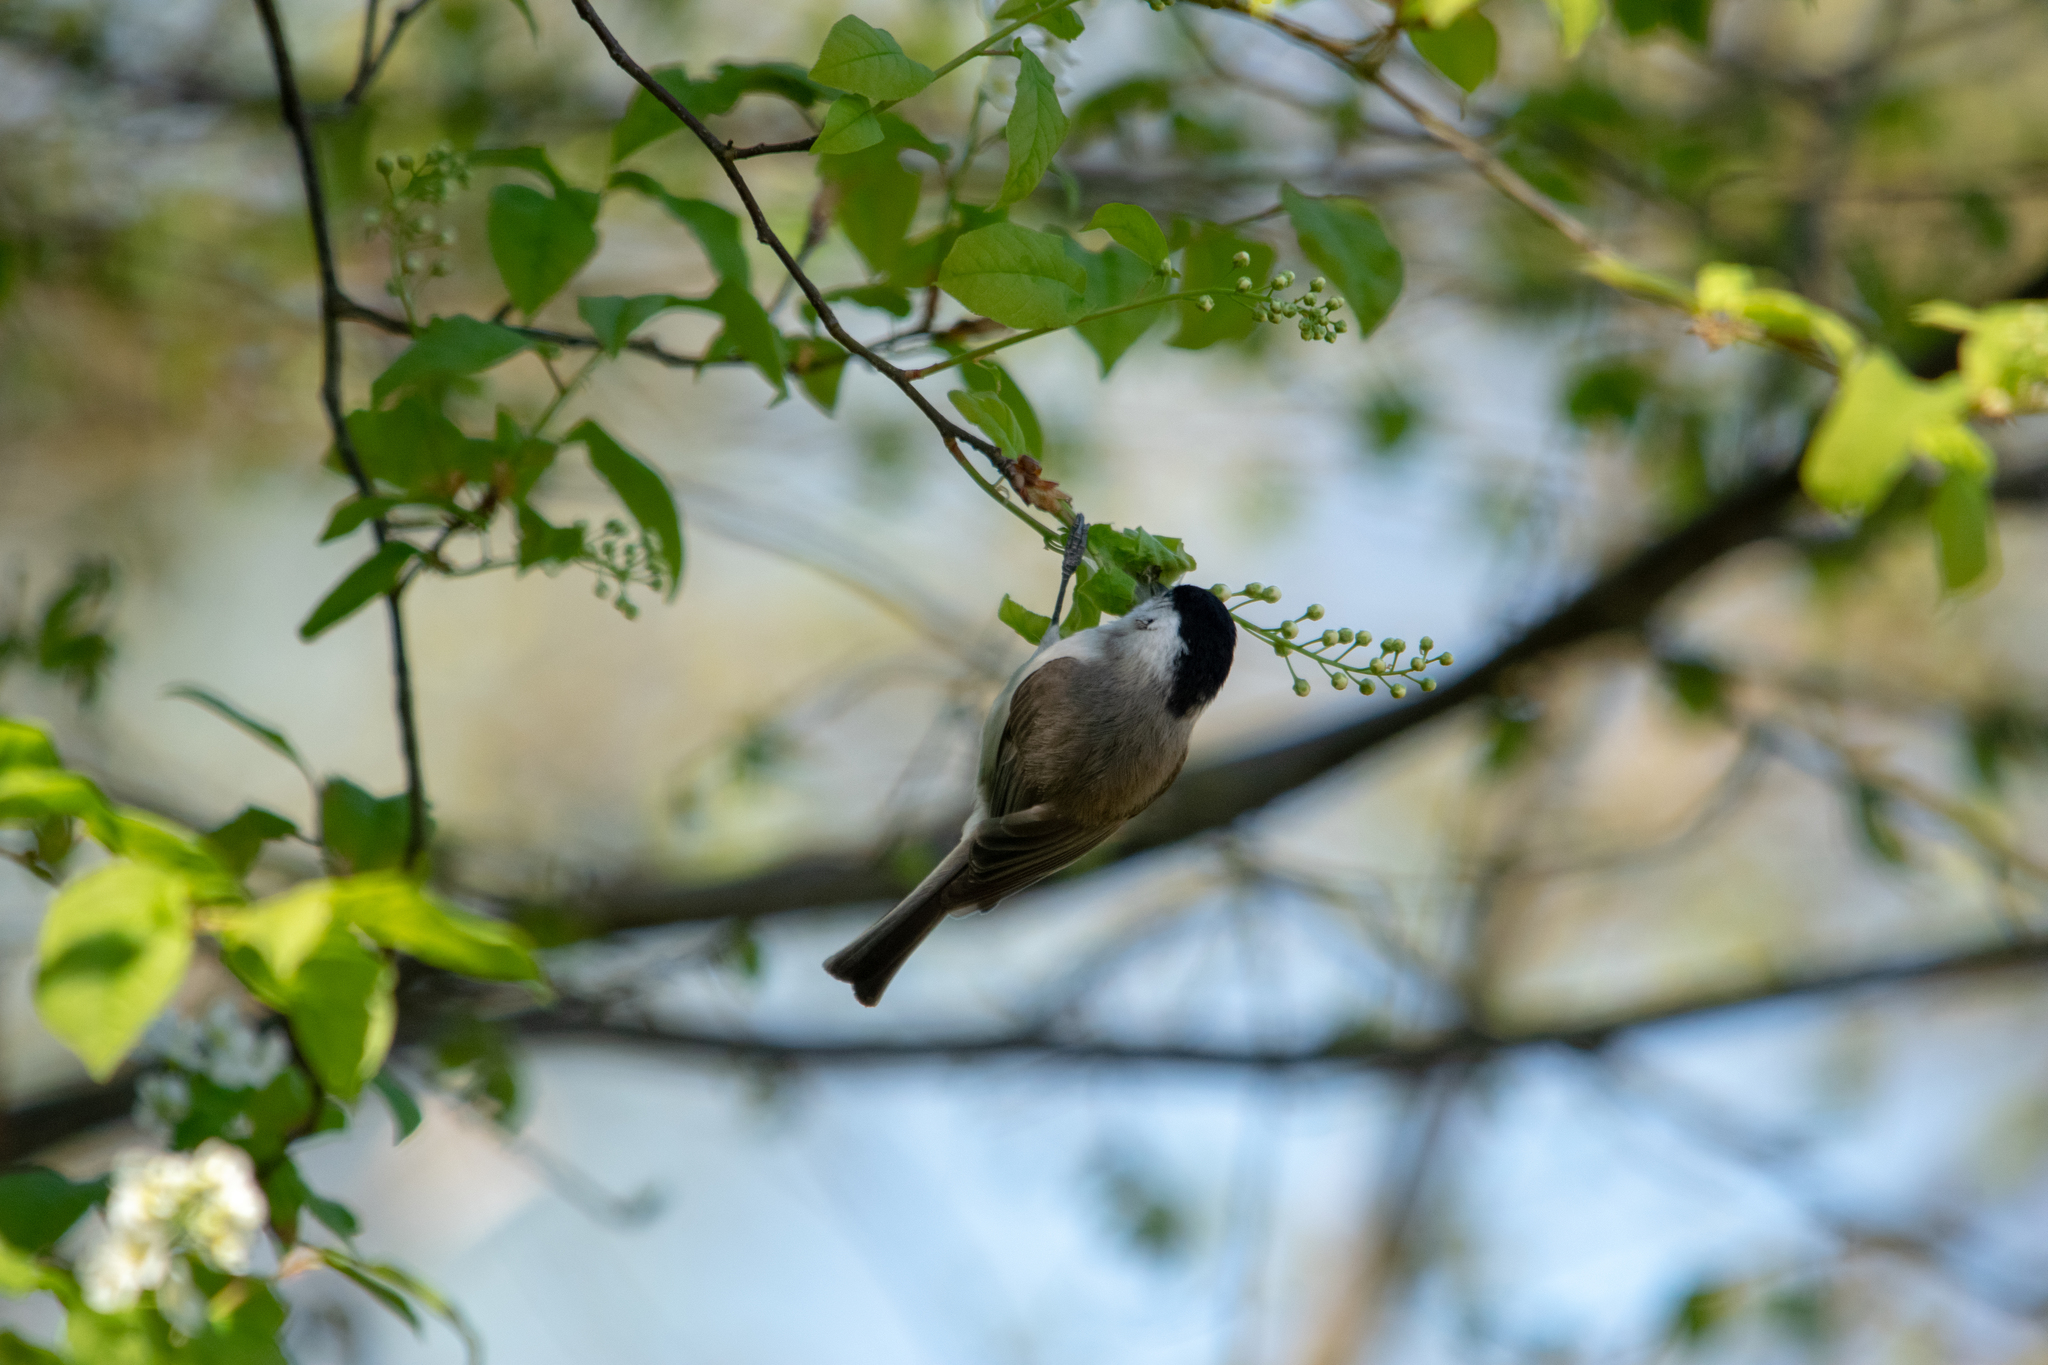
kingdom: Animalia
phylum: Chordata
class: Aves
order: Passeriformes
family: Paridae
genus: Poecile
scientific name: Poecile palustris
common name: Marsh tit
